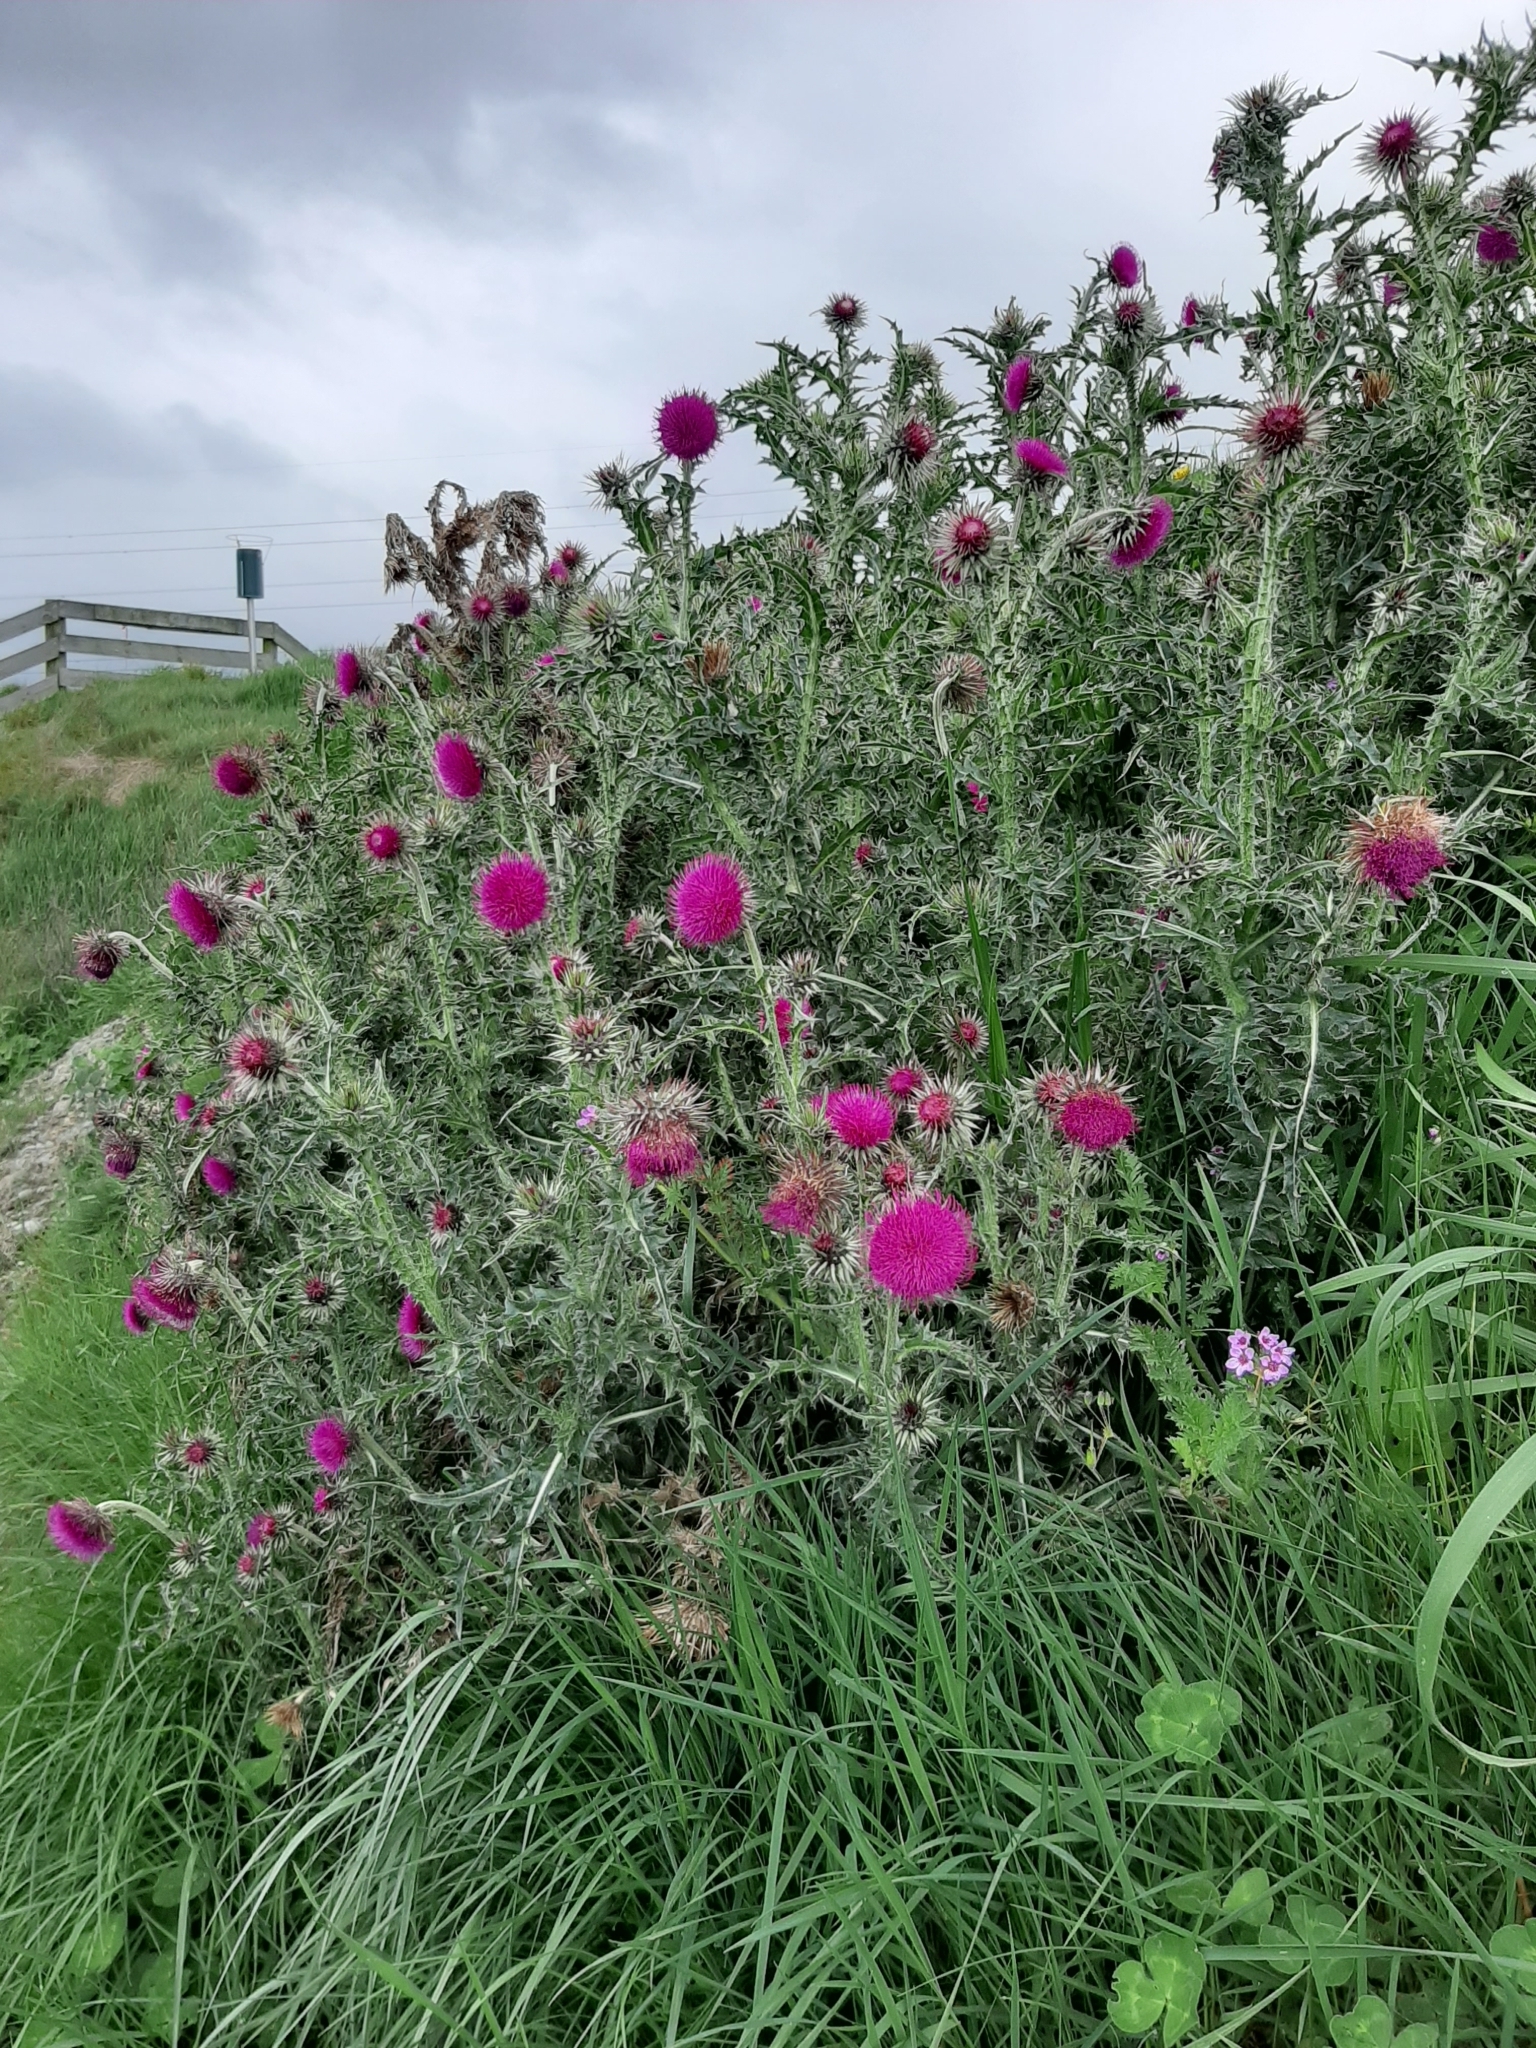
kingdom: Plantae
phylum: Tracheophyta
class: Magnoliopsida
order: Asterales
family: Asteraceae
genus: Carduus
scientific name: Carduus nutans
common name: Musk thistle
